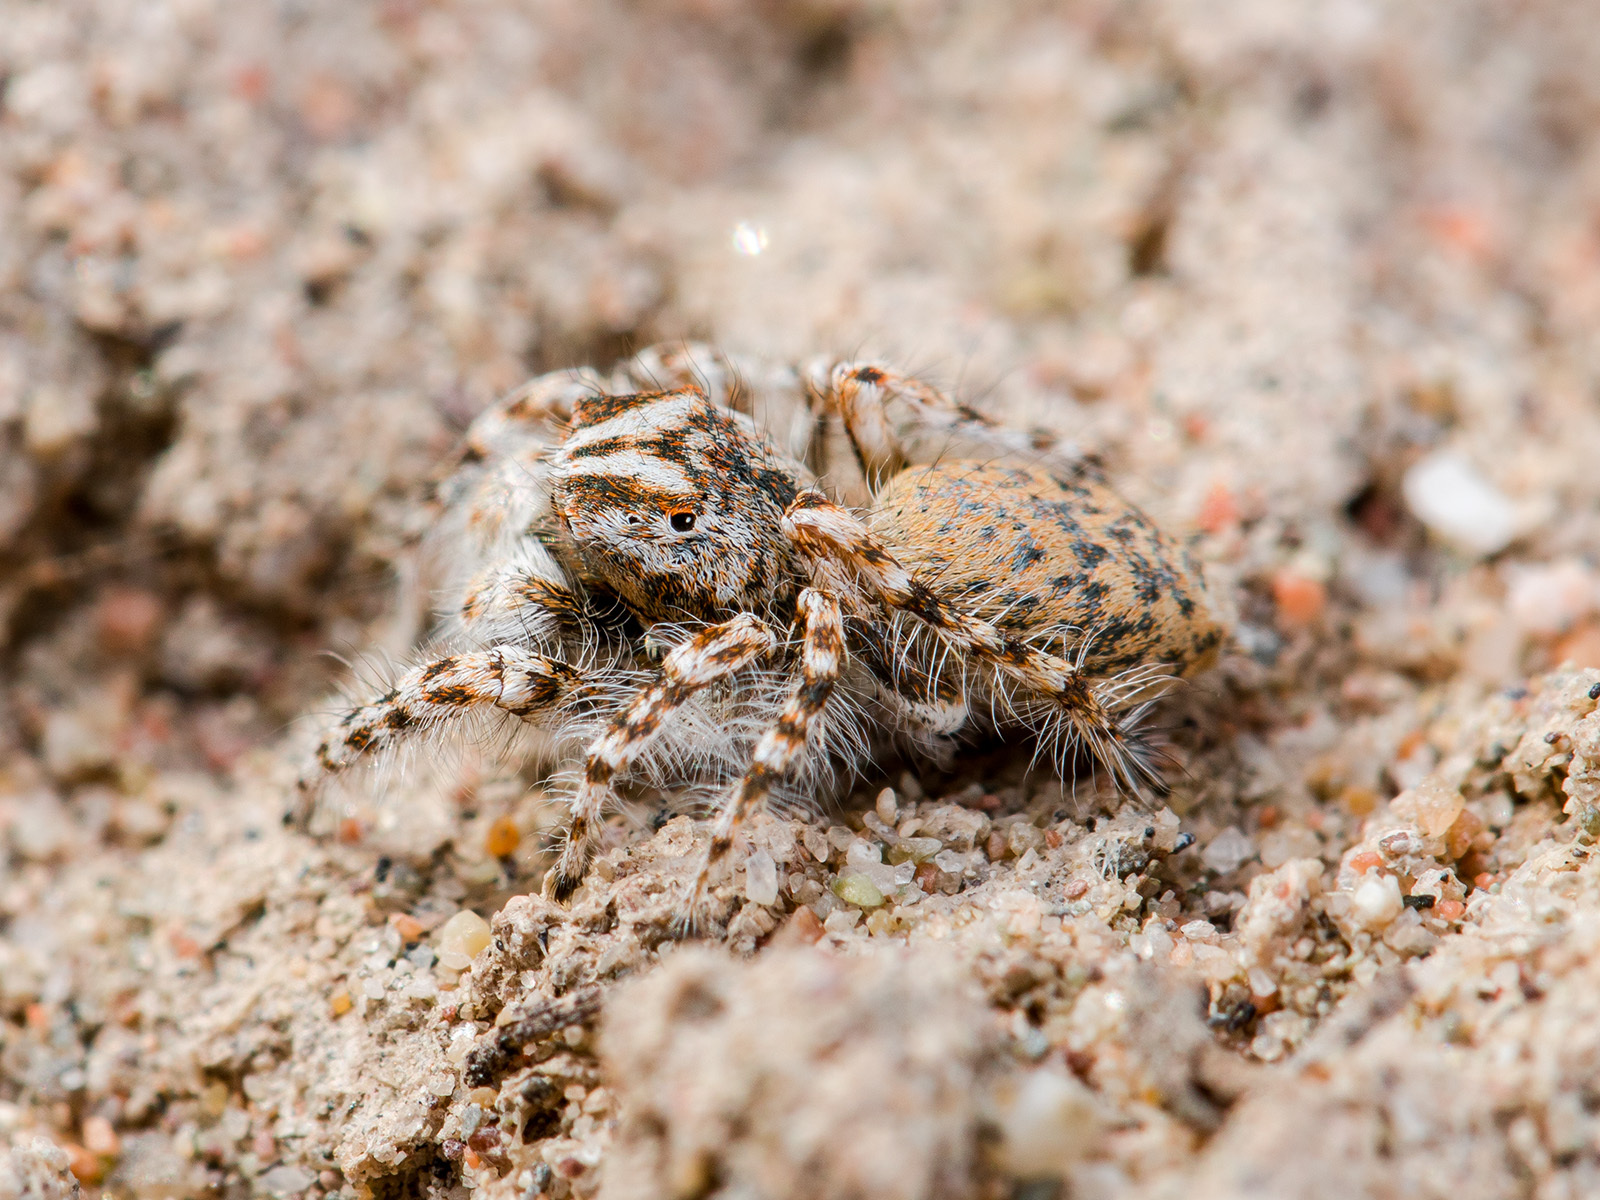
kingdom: Animalia
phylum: Arthropoda
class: Arachnida
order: Araneae
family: Salticidae
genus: Yllenus
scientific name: Yllenus uiguricus
